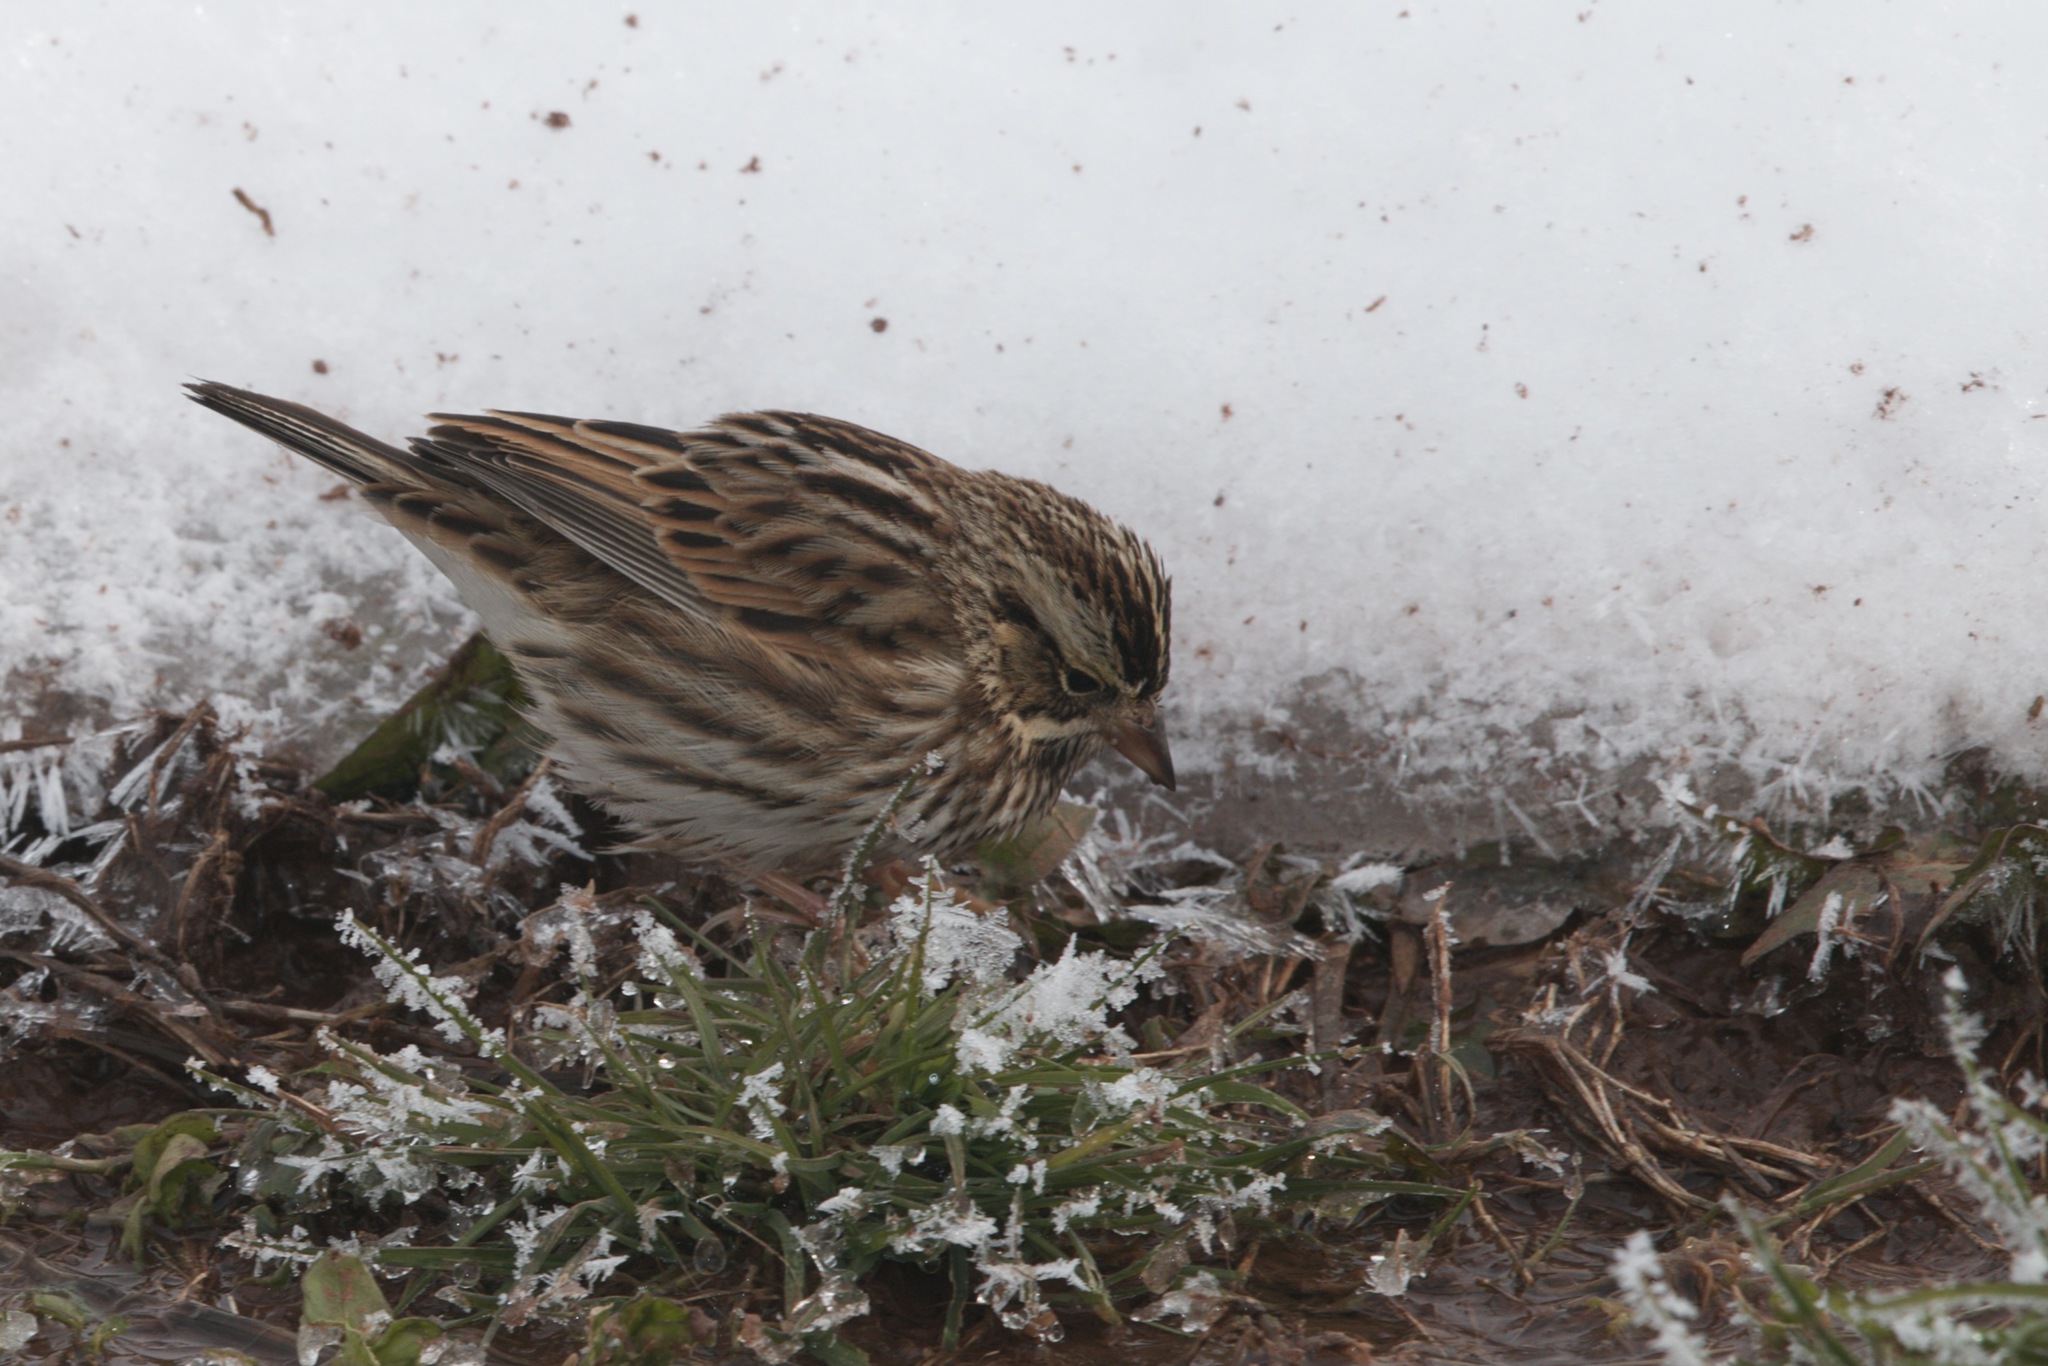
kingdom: Animalia
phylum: Chordata
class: Aves
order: Passeriformes
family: Passerellidae
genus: Passerculus
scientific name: Passerculus sandwichensis
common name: Savannah sparrow
